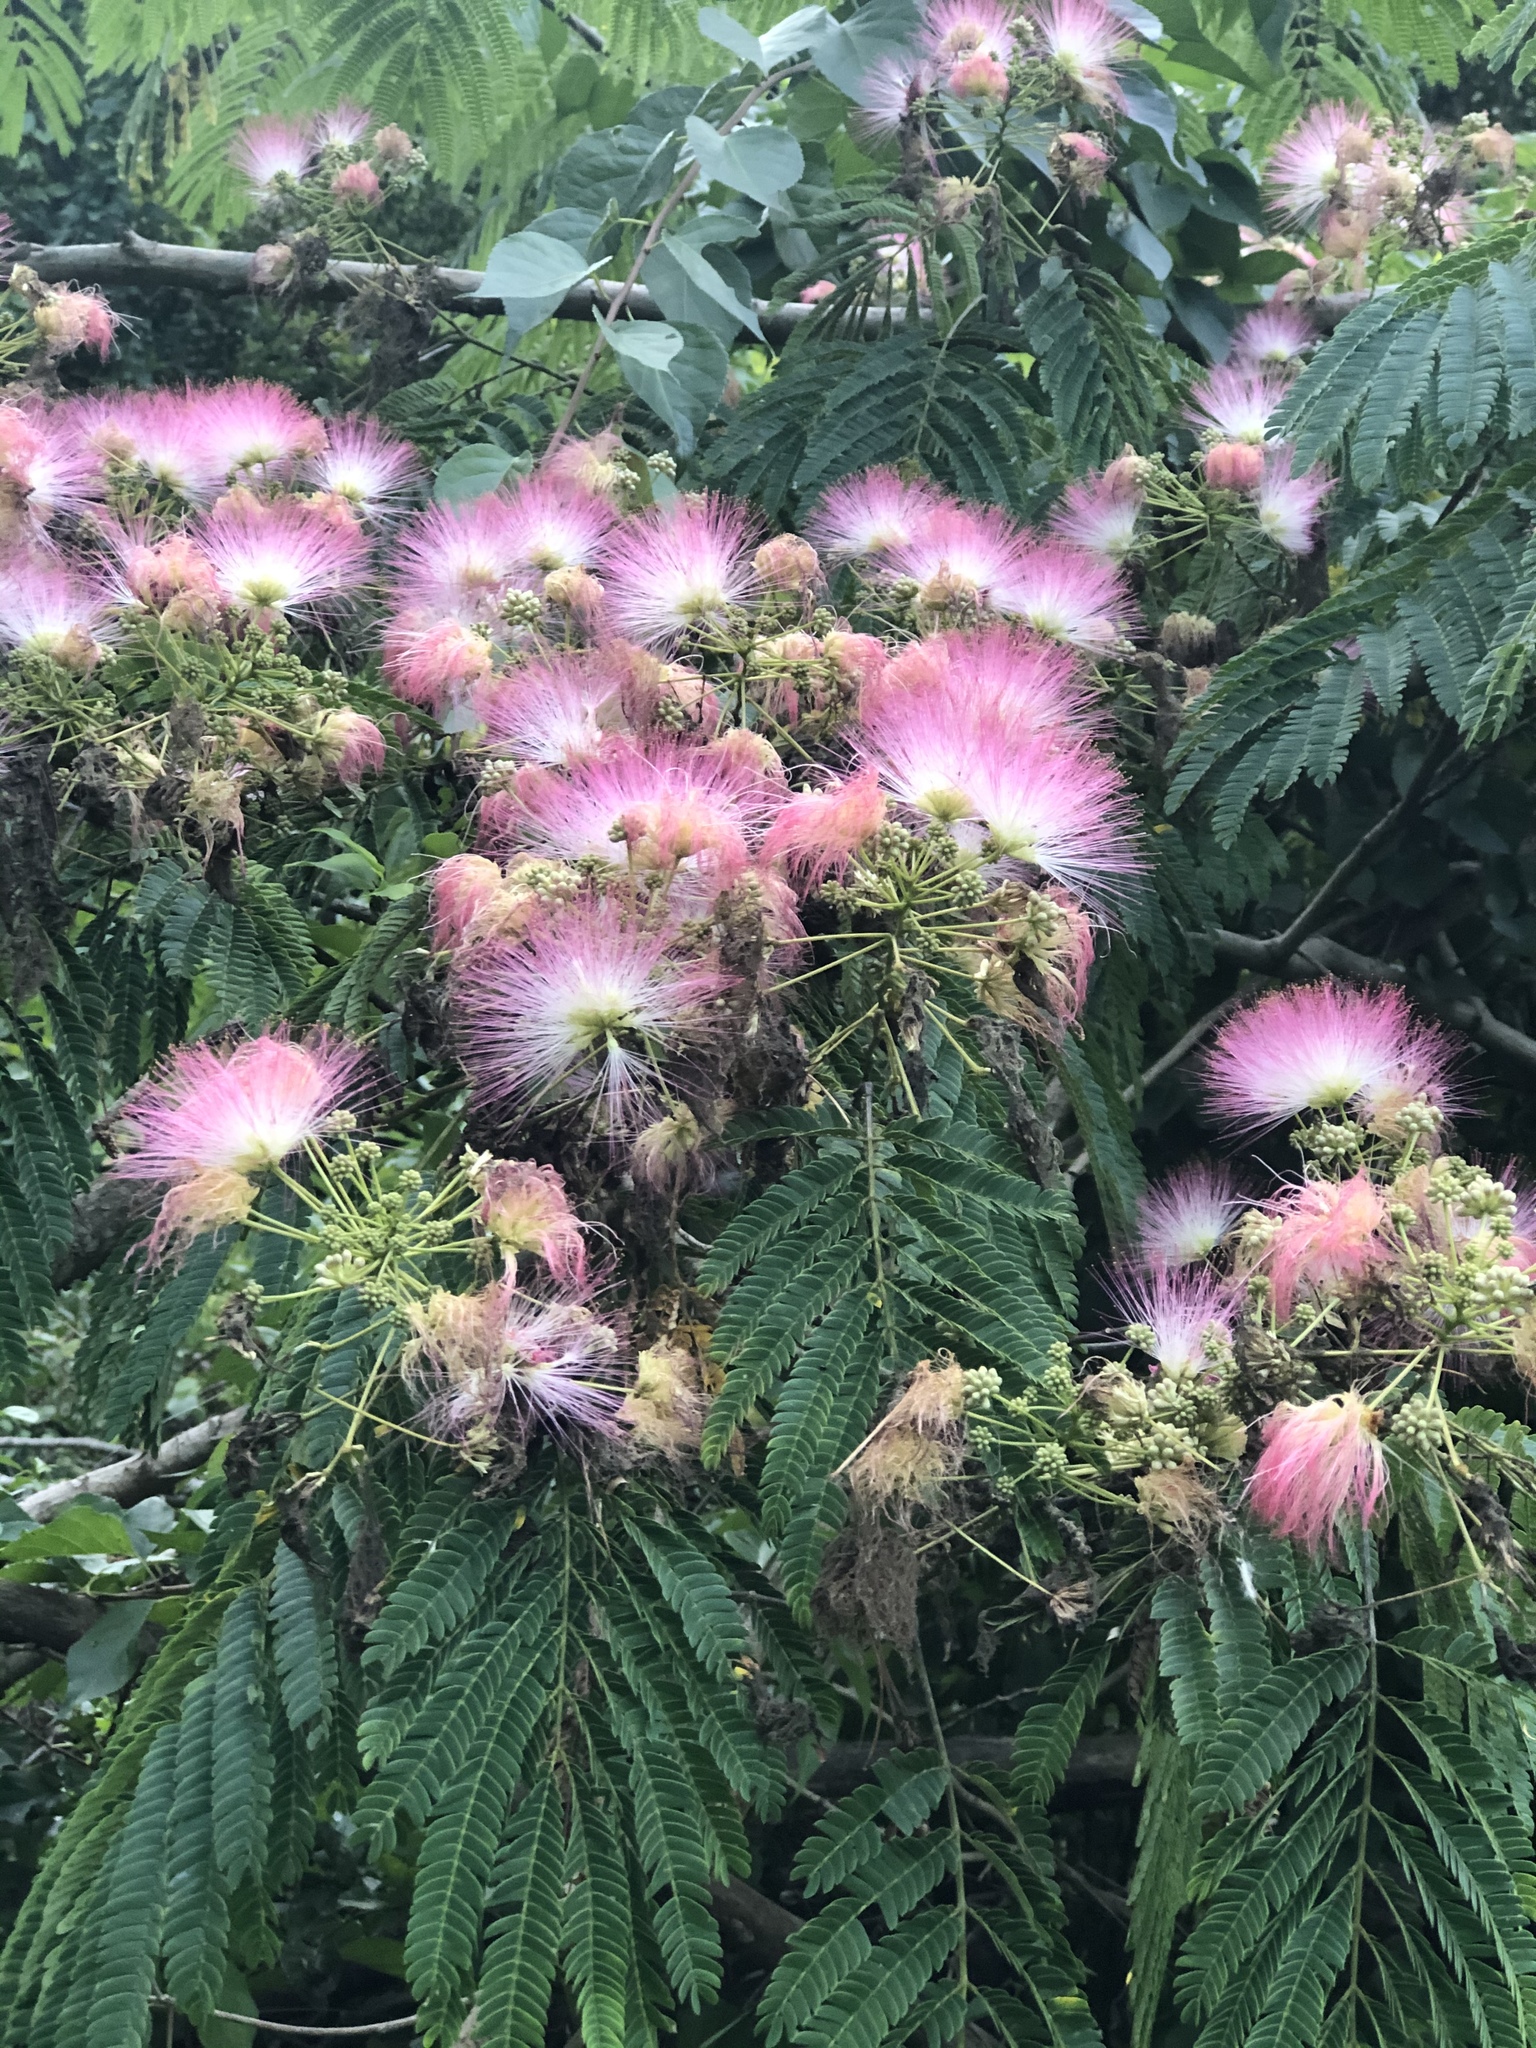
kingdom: Plantae
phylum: Tracheophyta
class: Magnoliopsida
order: Fabales
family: Fabaceae
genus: Albizia
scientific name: Albizia julibrissin
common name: Silktree
